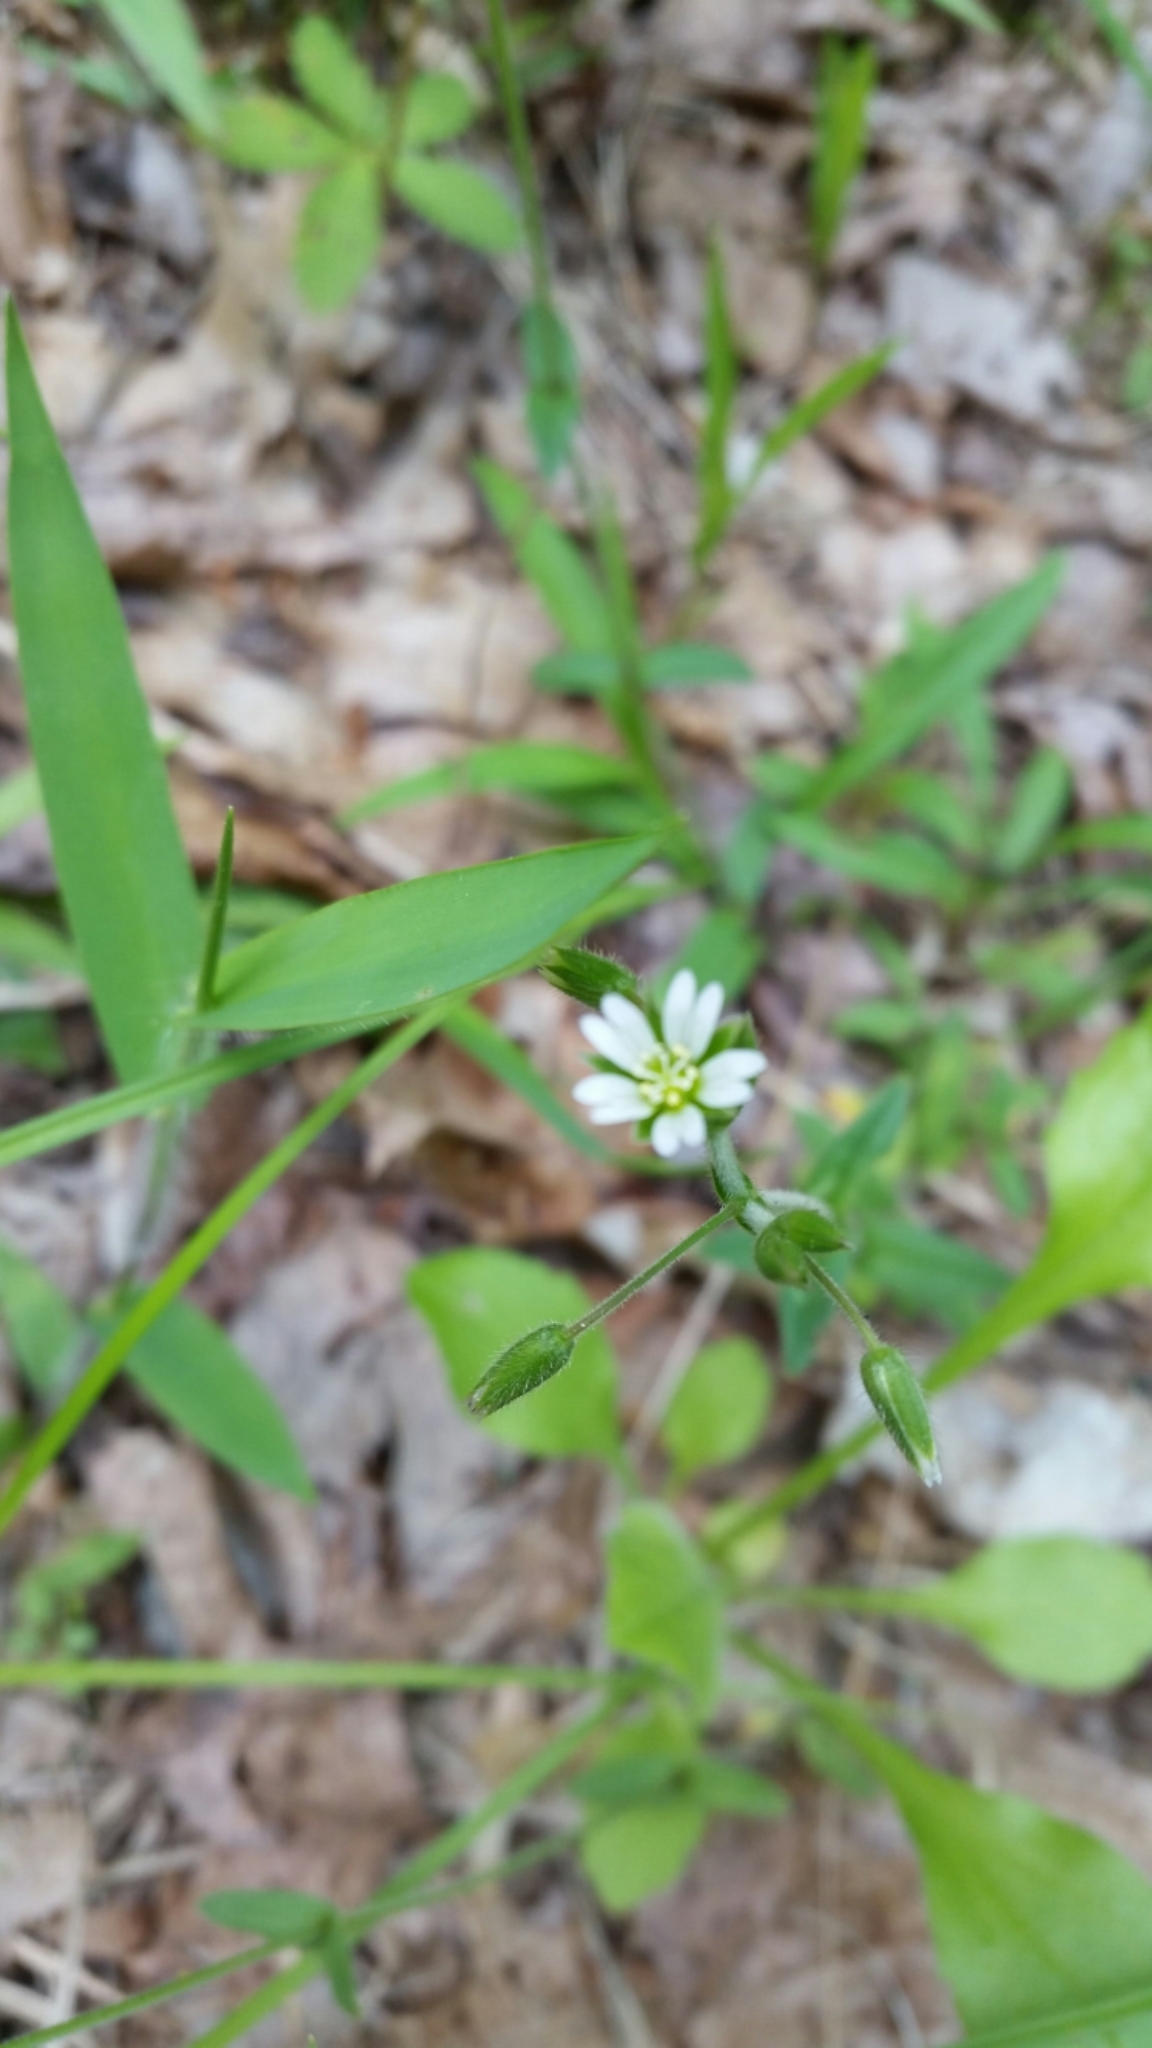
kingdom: Plantae
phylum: Tracheophyta
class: Magnoliopsida
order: Caryophyllales
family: Caryophyllaceae
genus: Cerastium
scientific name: Cerastium fontanum
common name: Common mouse-ear
